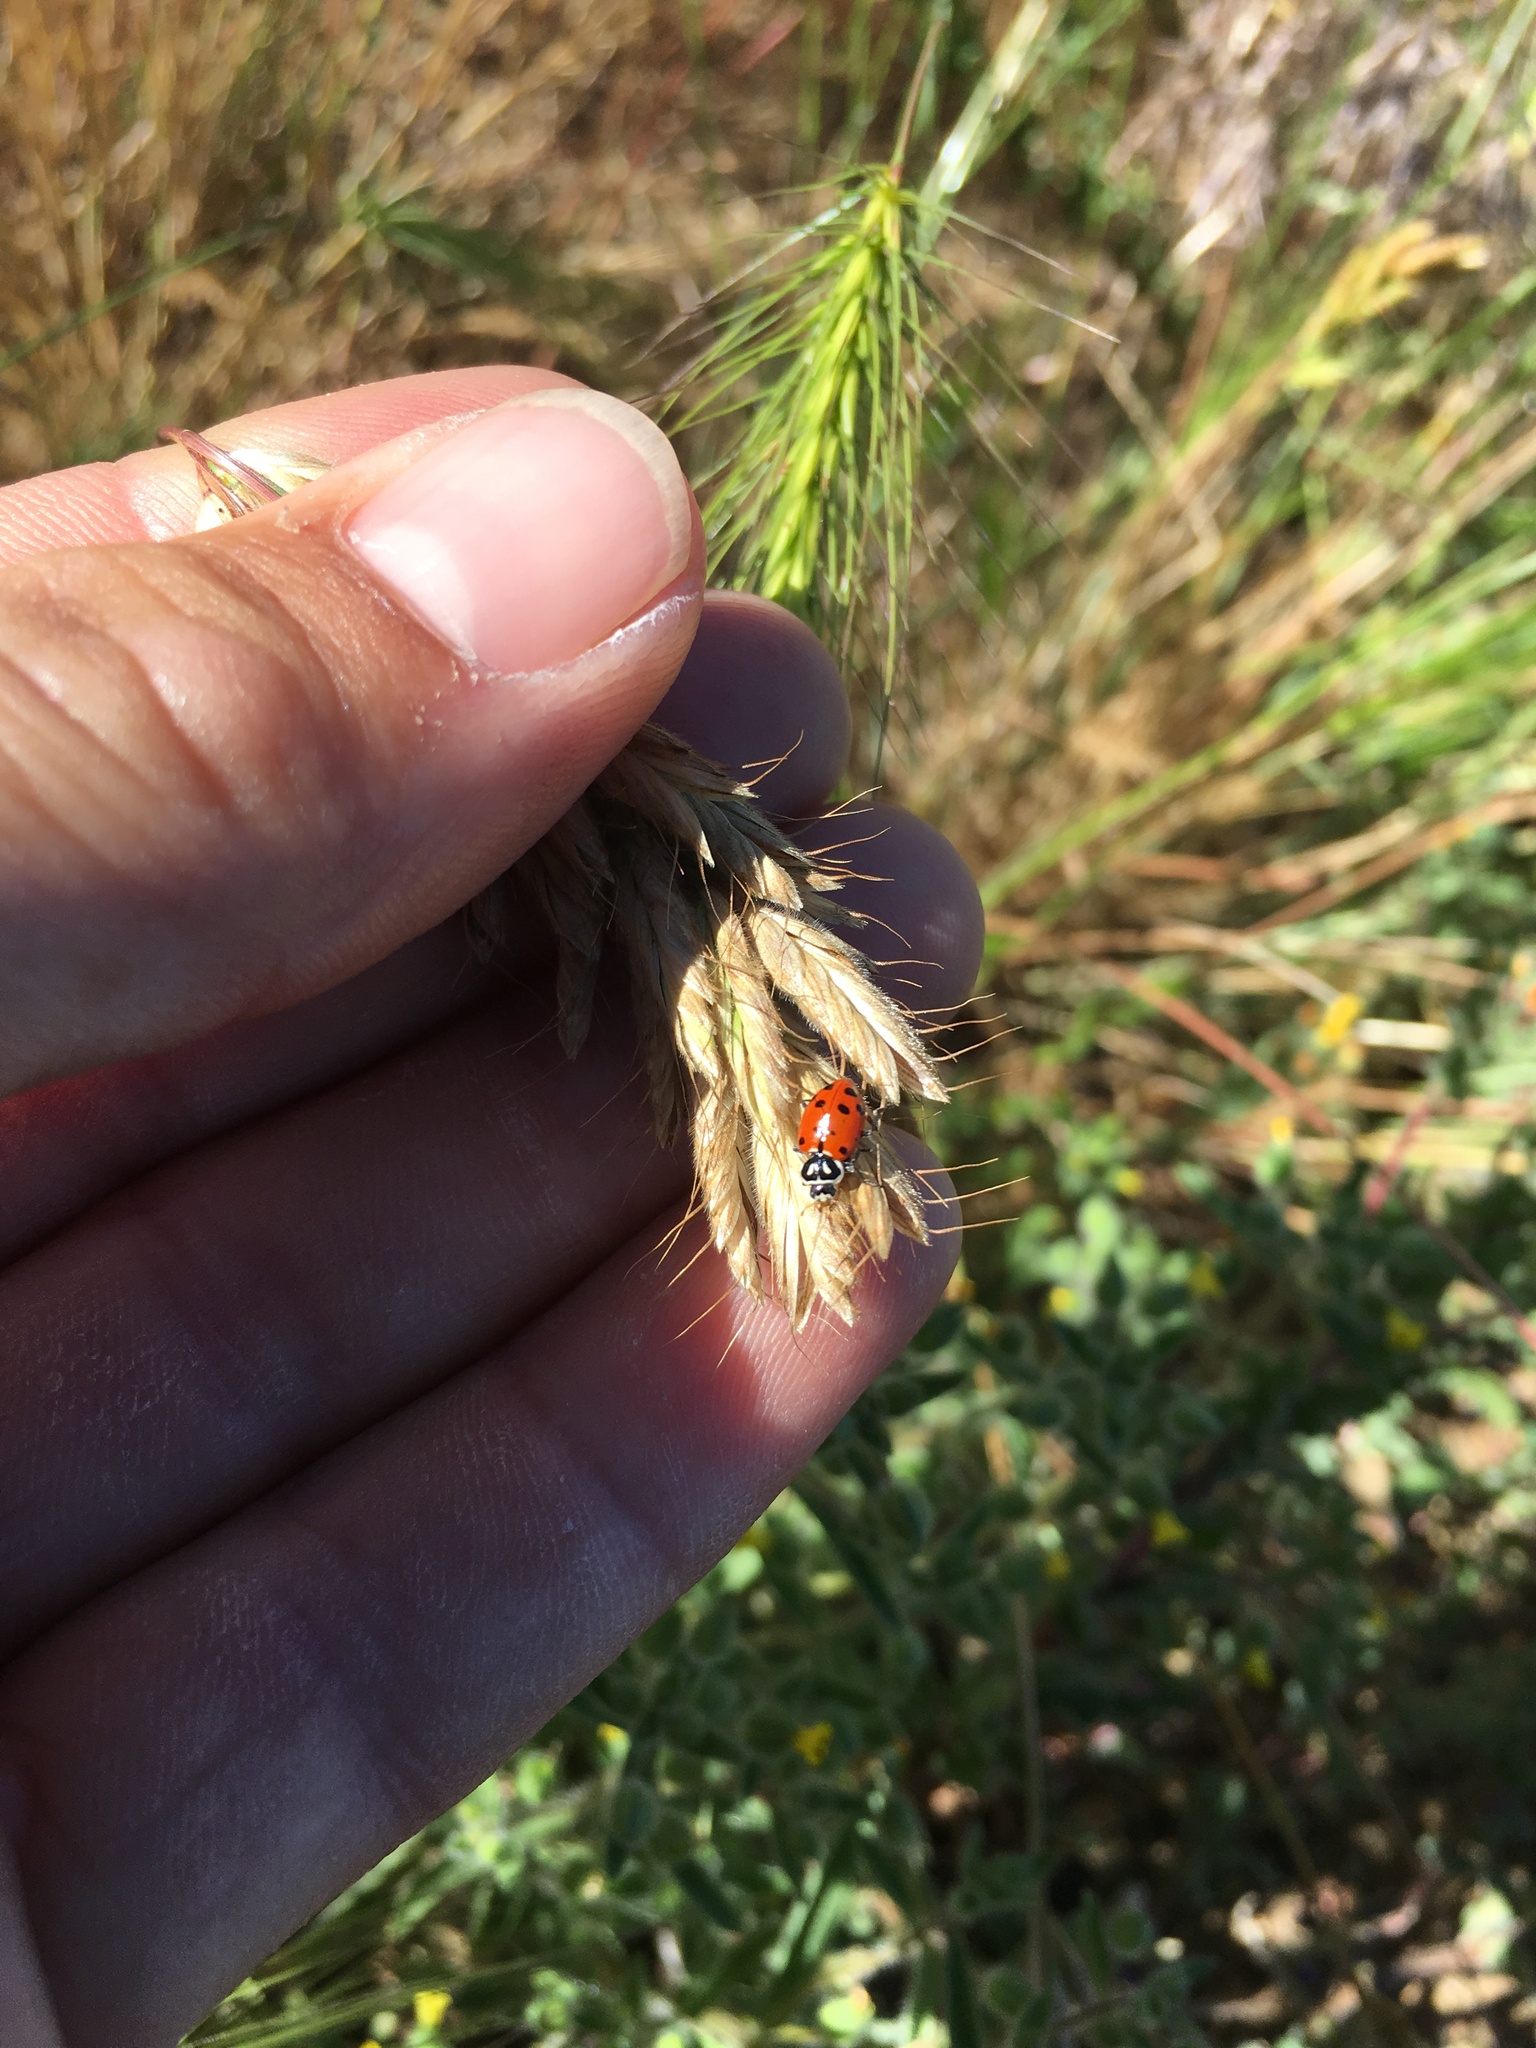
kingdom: Animalia
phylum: Arthropoda
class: Insecta
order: Coleoptera
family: Coccinellidae
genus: Hippodamia
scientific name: Hippodamia convergens
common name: Convergent lady beetle
